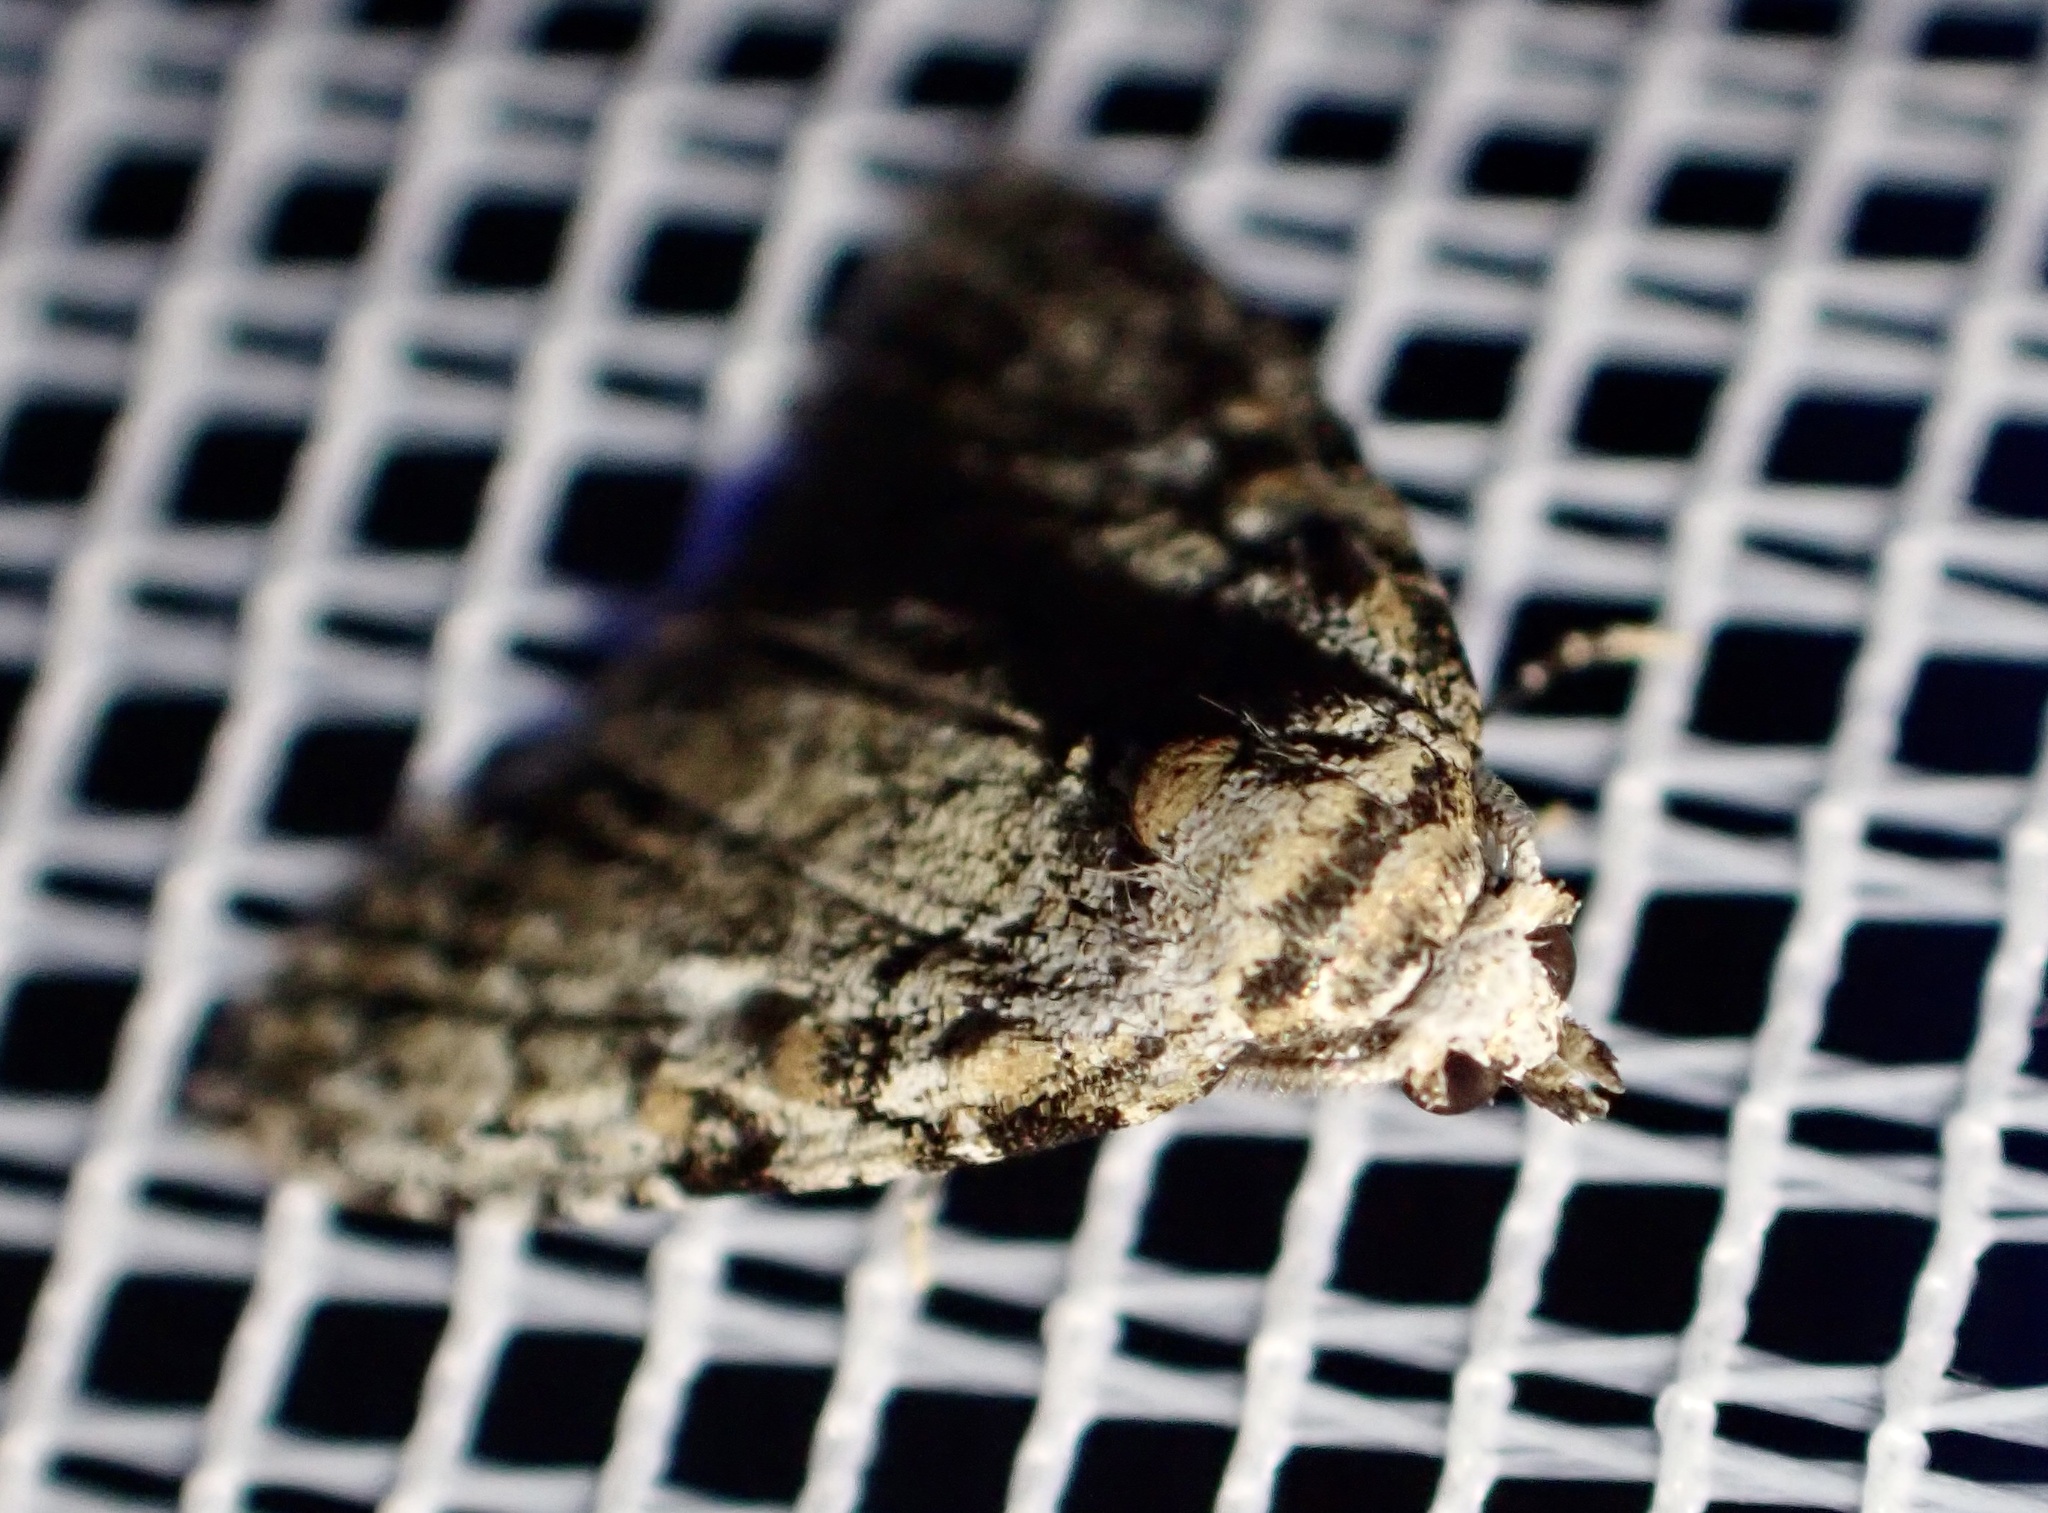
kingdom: Animalia
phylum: Arthropoda
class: Insecta
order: Lepidoptera
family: Nolidae
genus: Meganola
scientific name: Meganola strigula
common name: Small black arches
